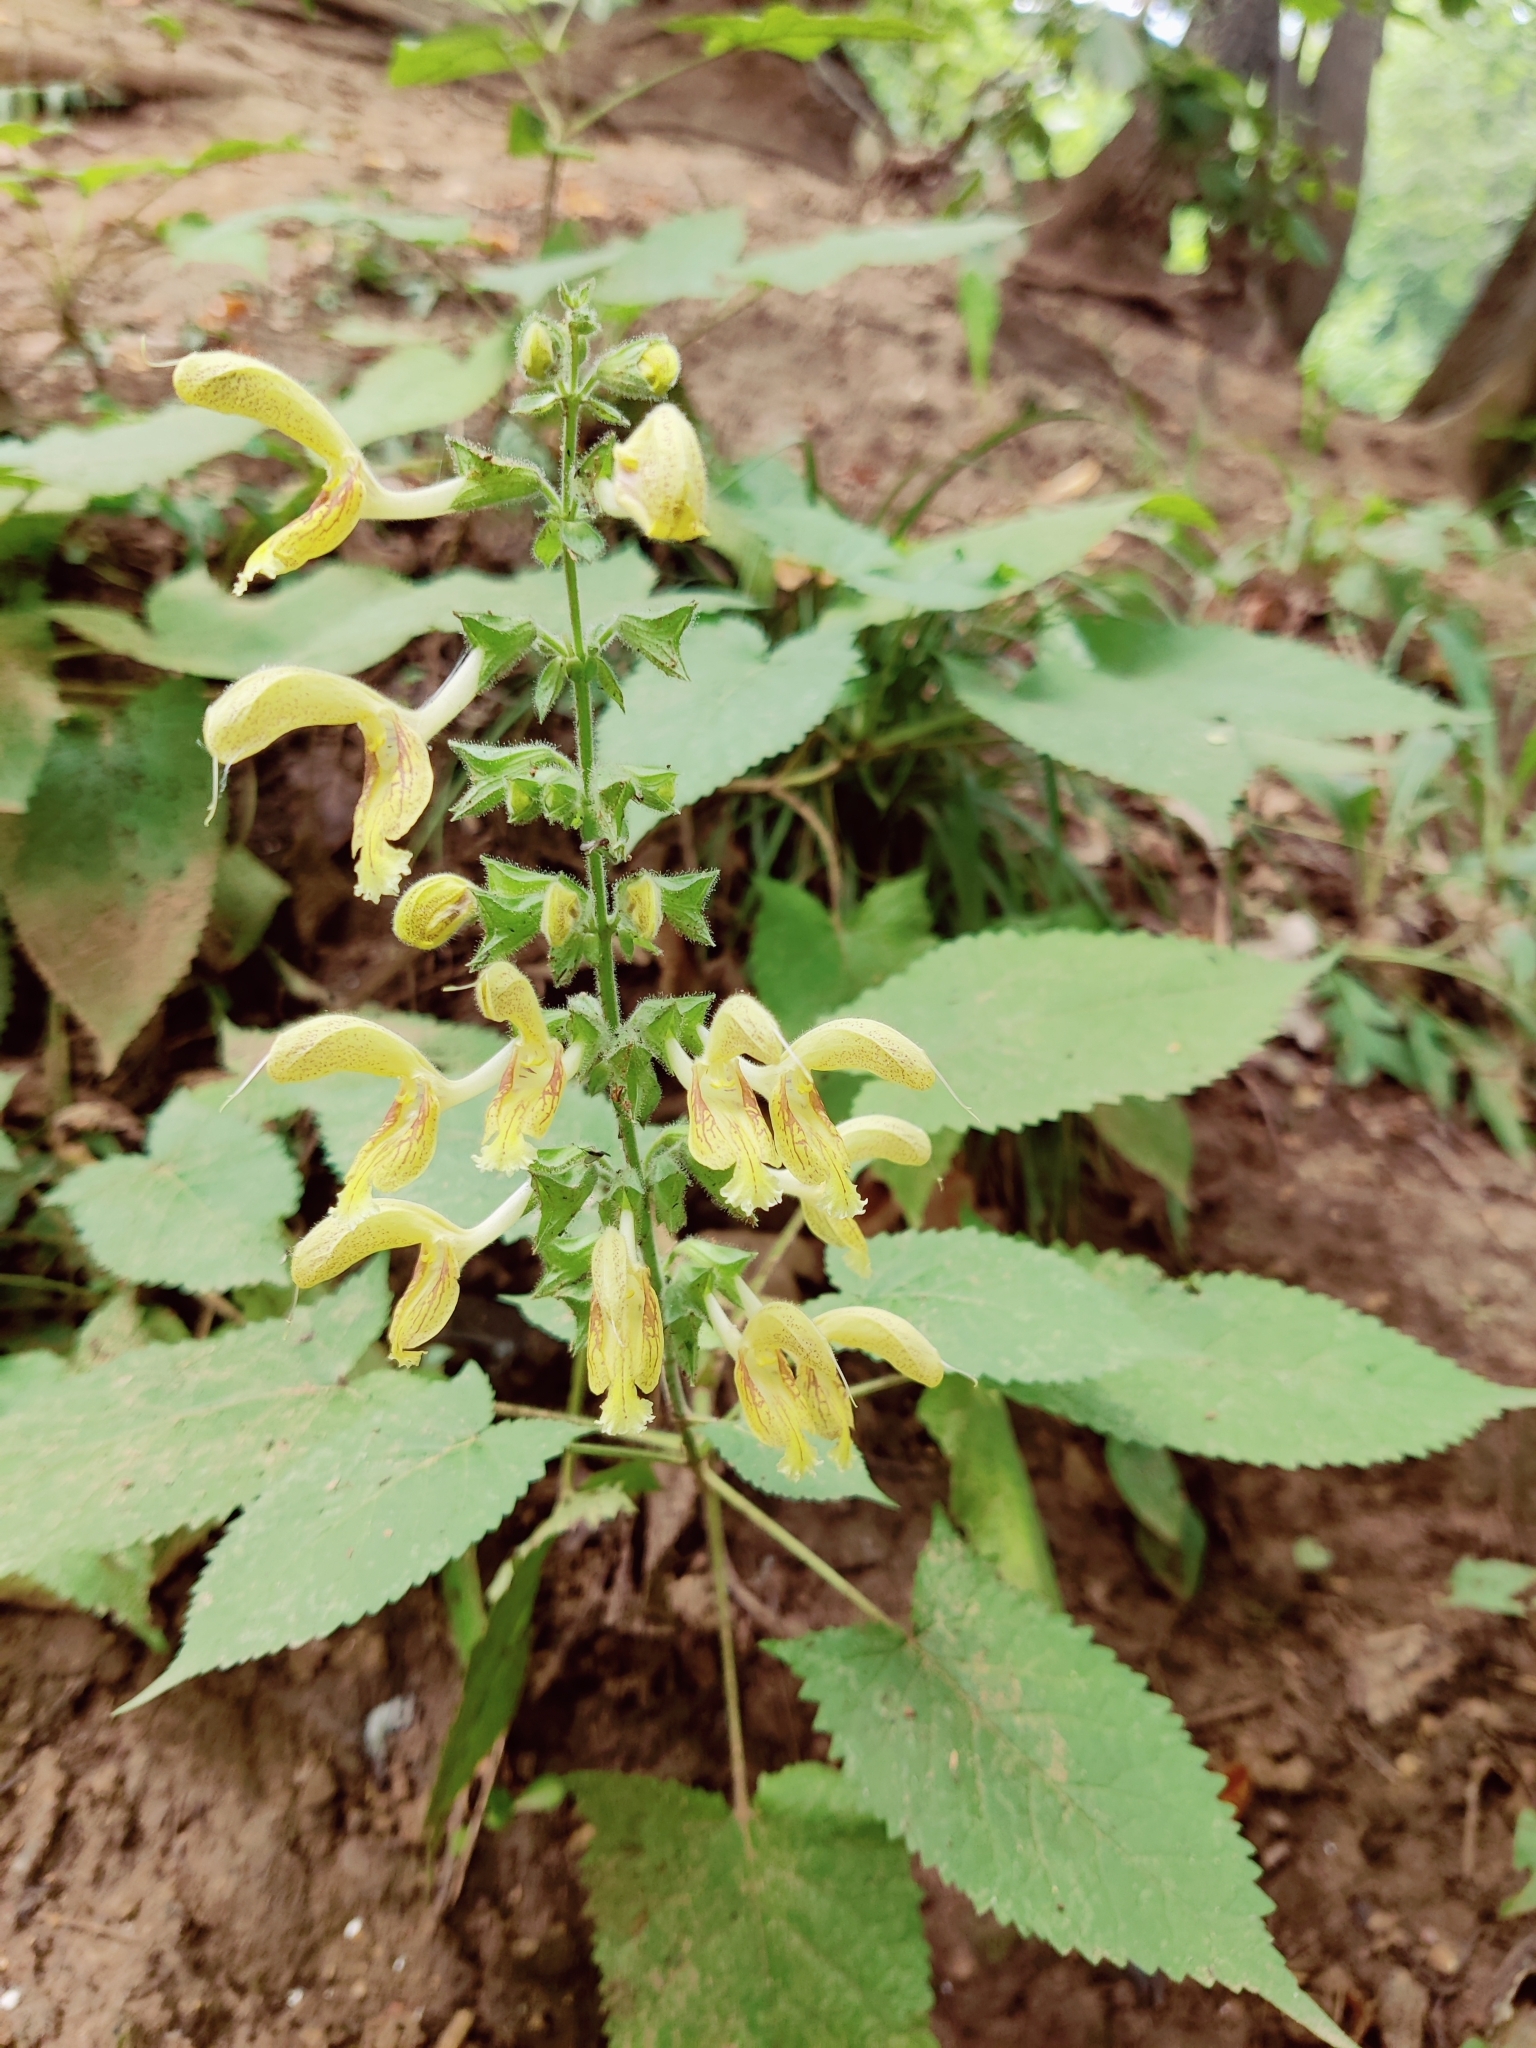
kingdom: Plantae
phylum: Tracheophyta
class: Magnoliopsida
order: Lamiales
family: Lamiaceae
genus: Salvia
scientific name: Salvia glutinosa
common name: Sticky clary
